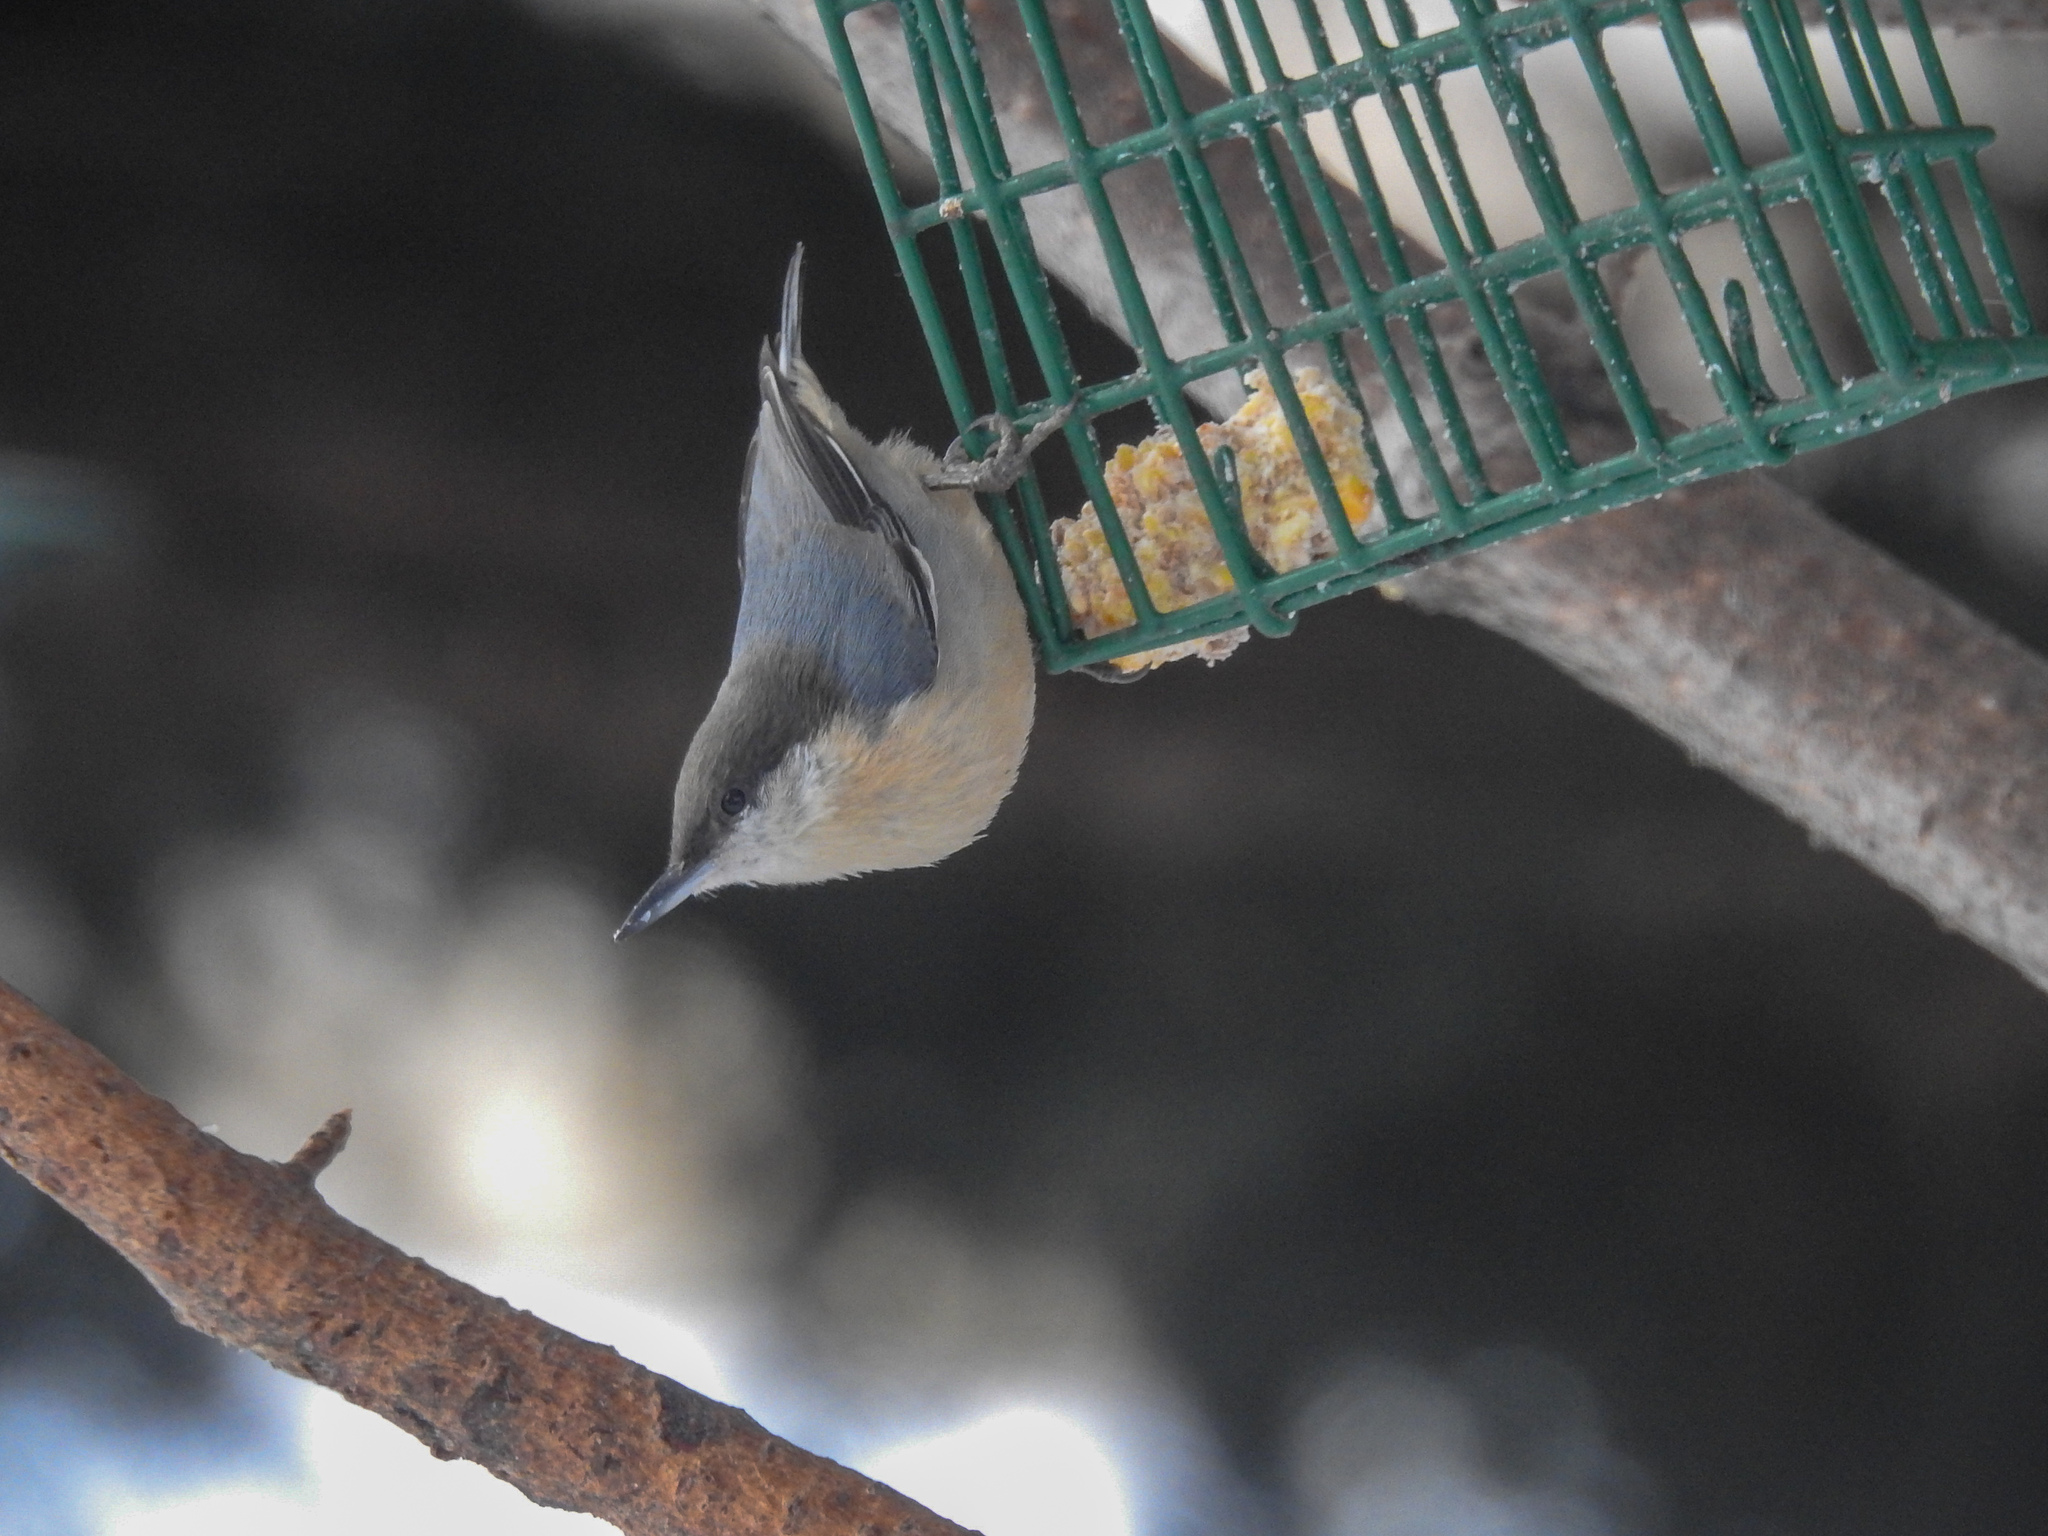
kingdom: Animalia
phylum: Chordata
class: Aves
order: Passeriformes
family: Sittidae
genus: Sitta
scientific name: Sitta pygmaea
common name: Pygmy nuthatch
